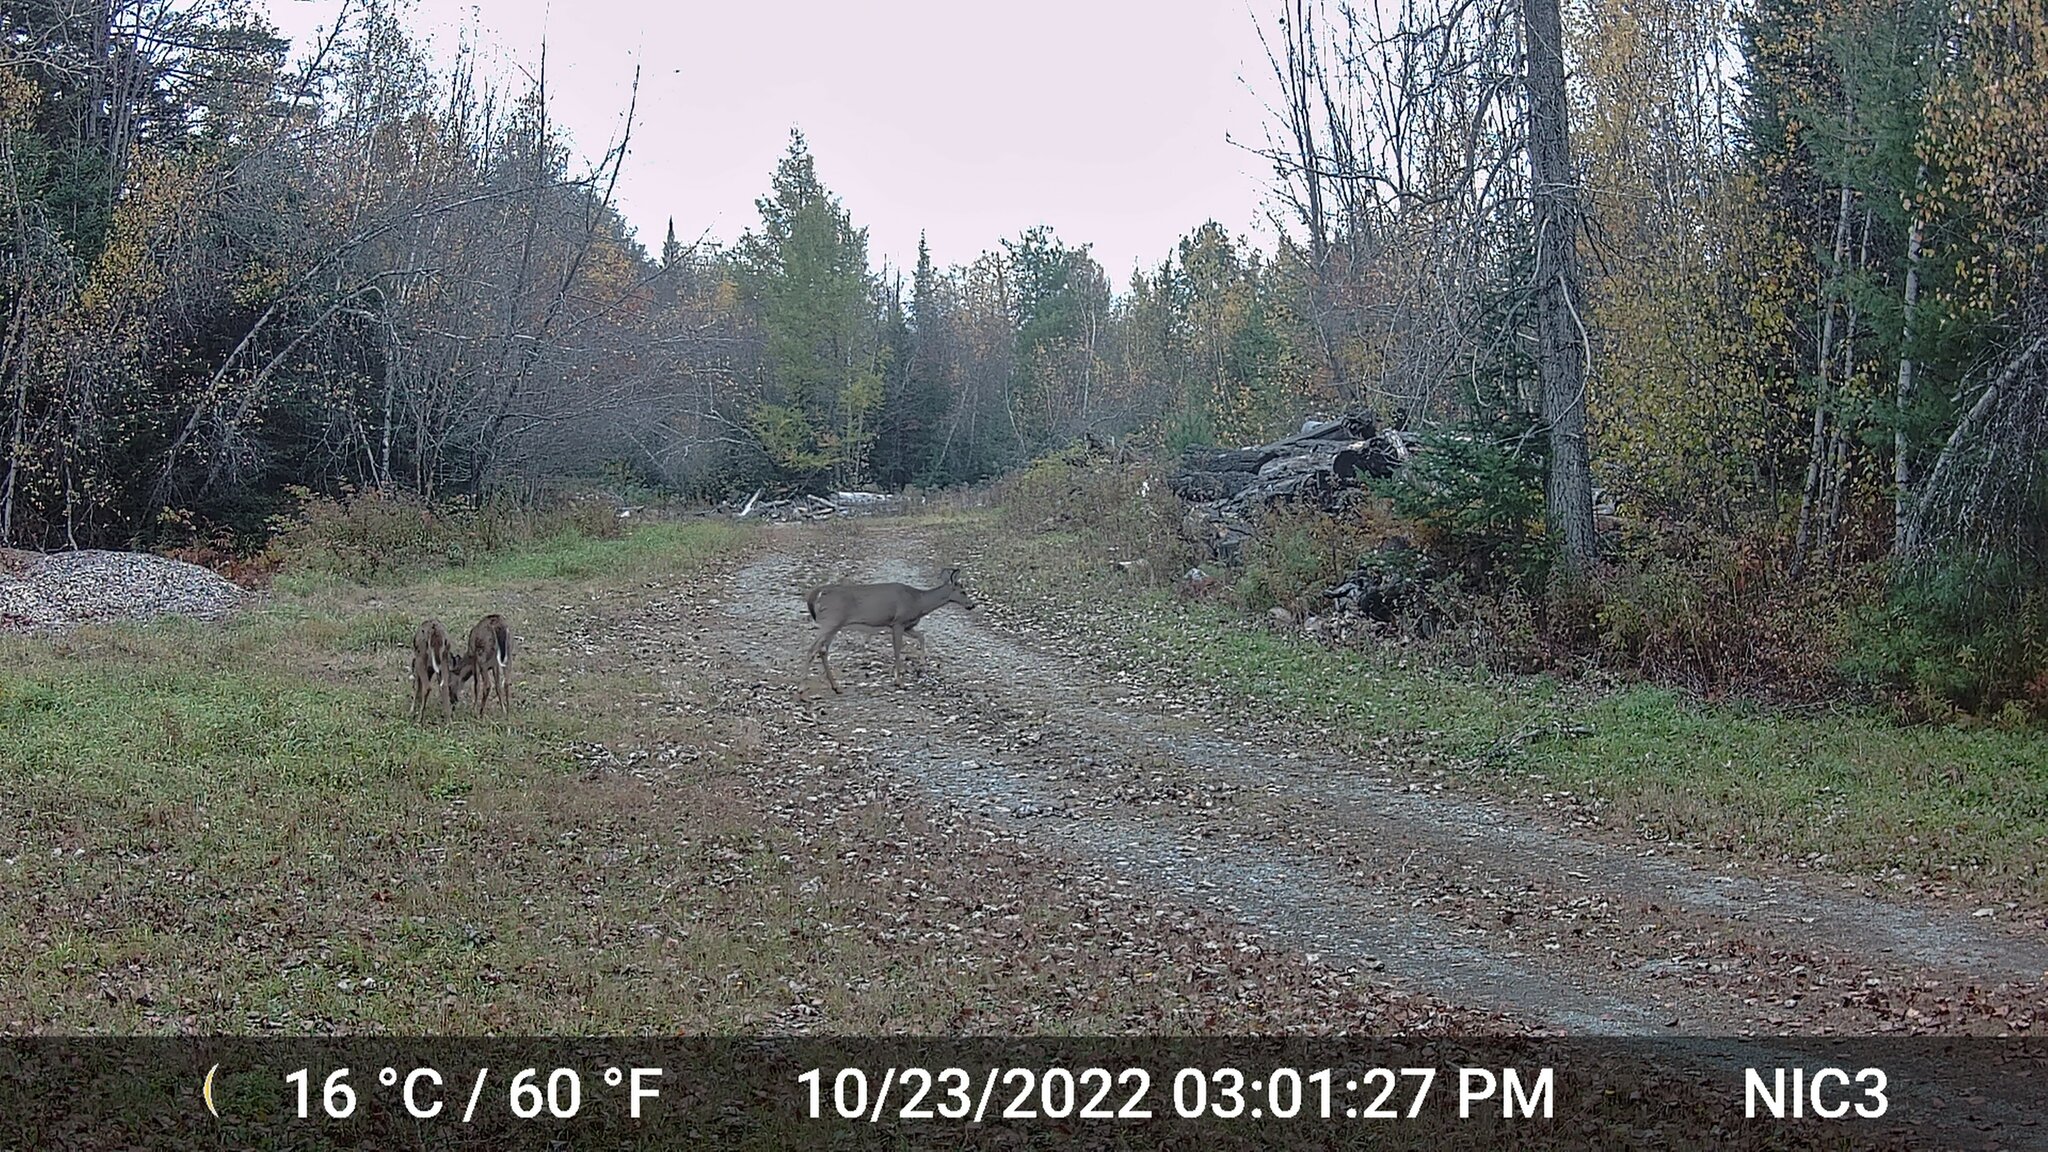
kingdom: Animalia
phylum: Chordata
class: Mammalia
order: Artiodactyla
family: Cervidae
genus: Odocoileus
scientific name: Odocoileus virginianus
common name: White-tailed deer
